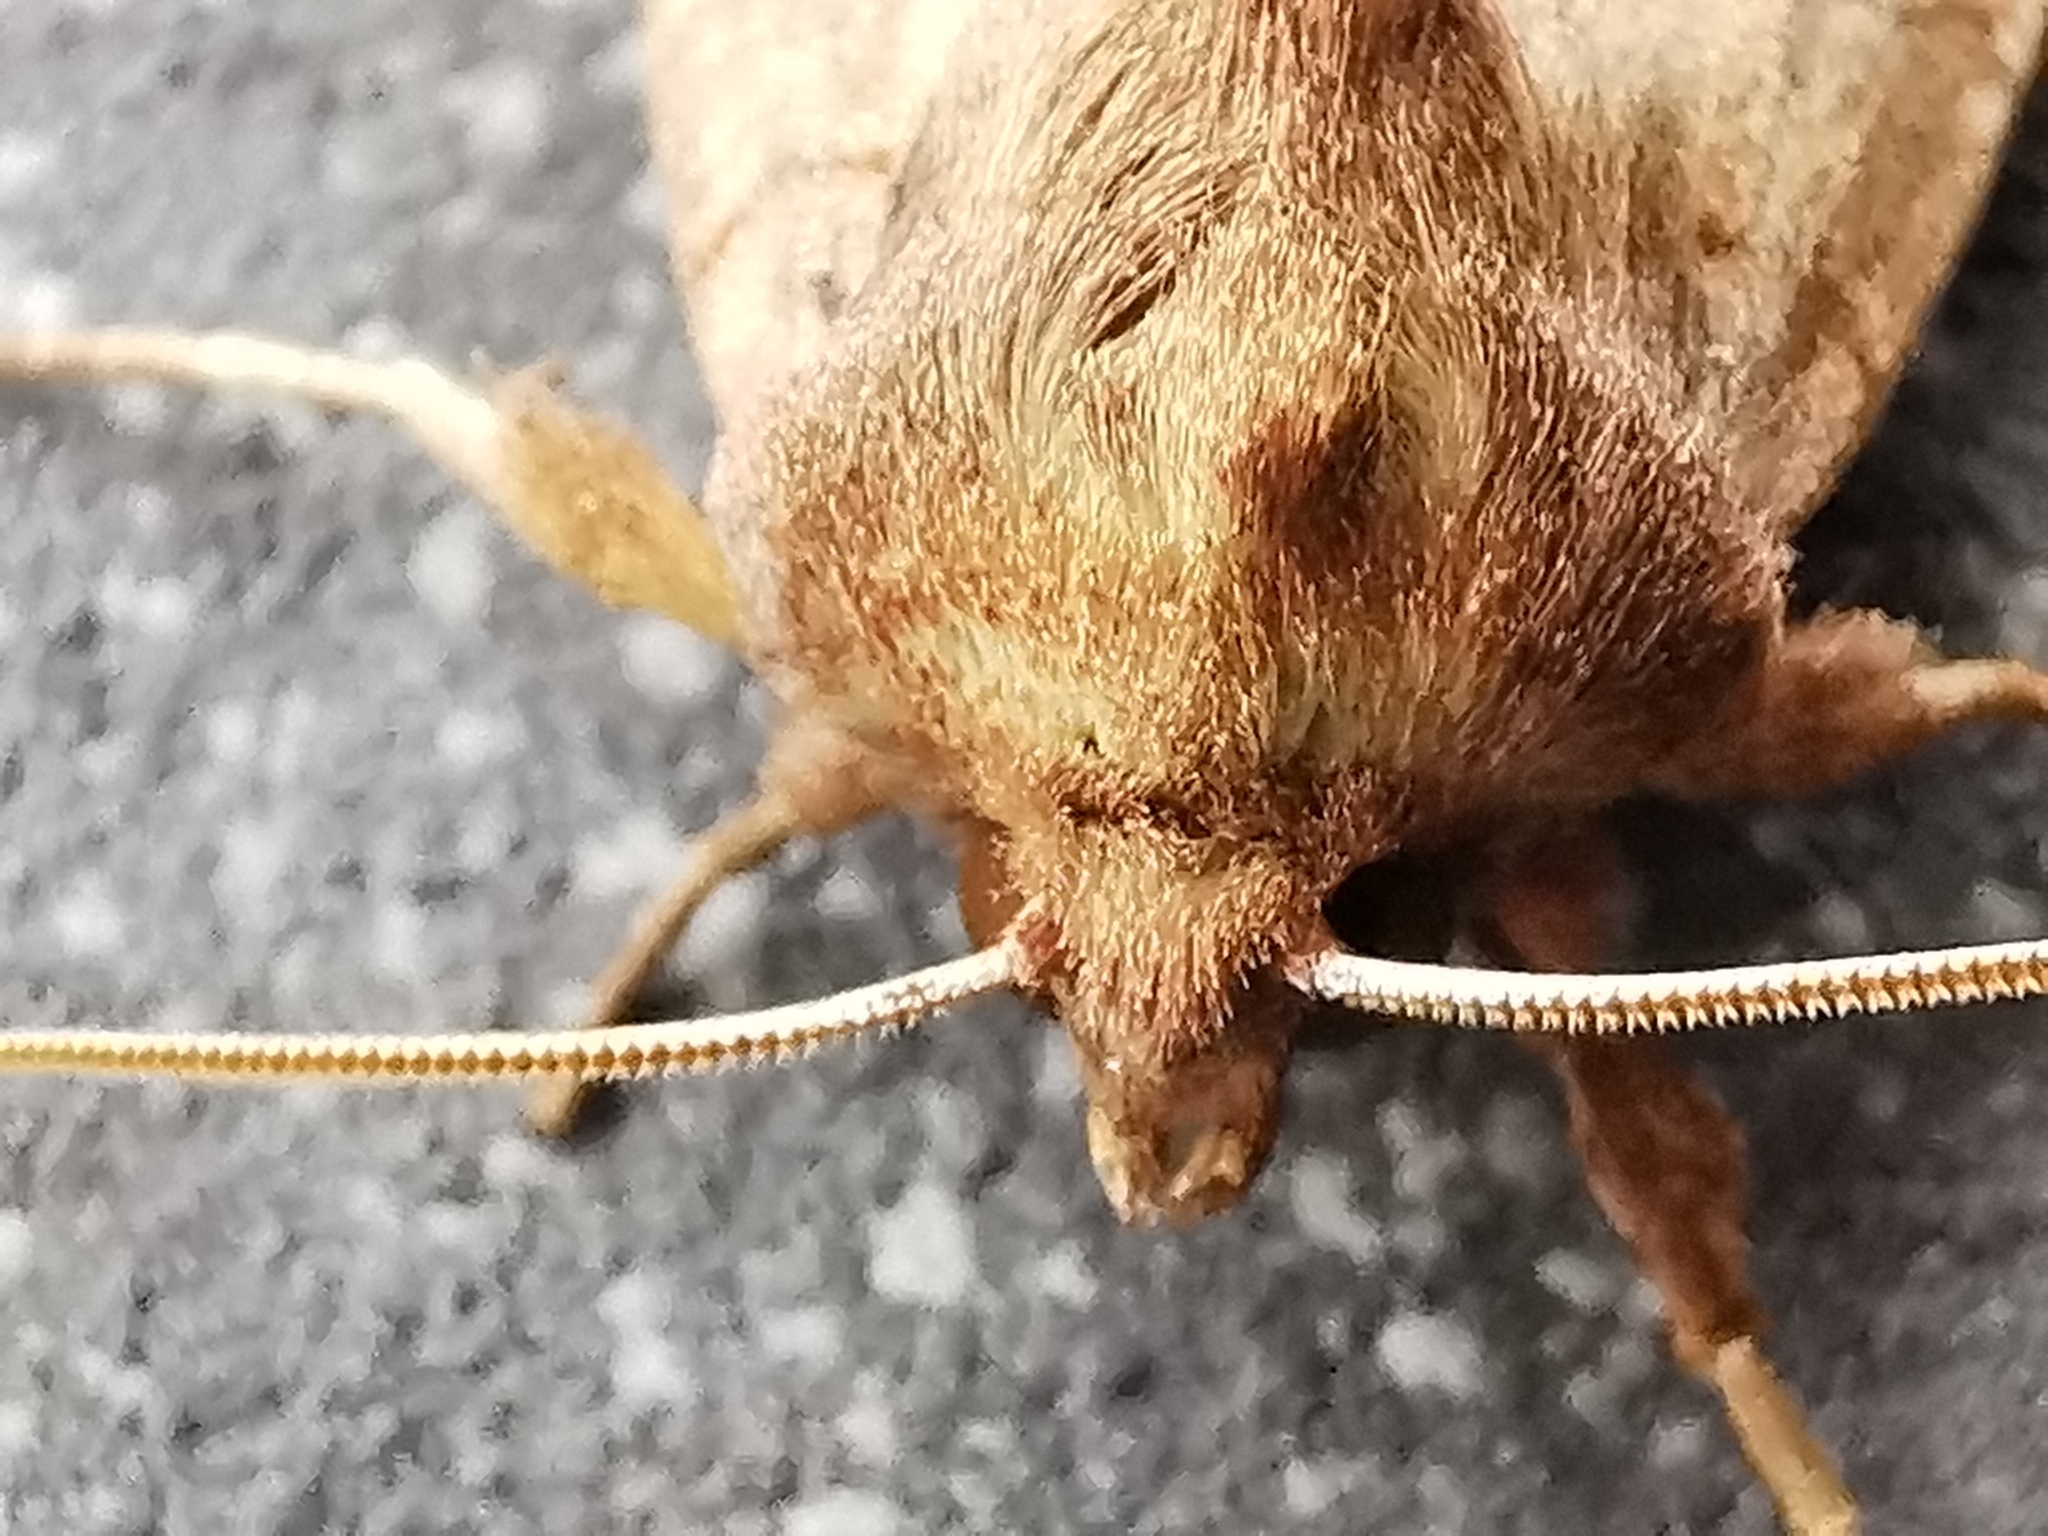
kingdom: Animalia
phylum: Arthropoda
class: Insecta
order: Lepidoptera
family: Noctuidae
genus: Hydraecia
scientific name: Hydraecia micacea
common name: Rosy rustic
